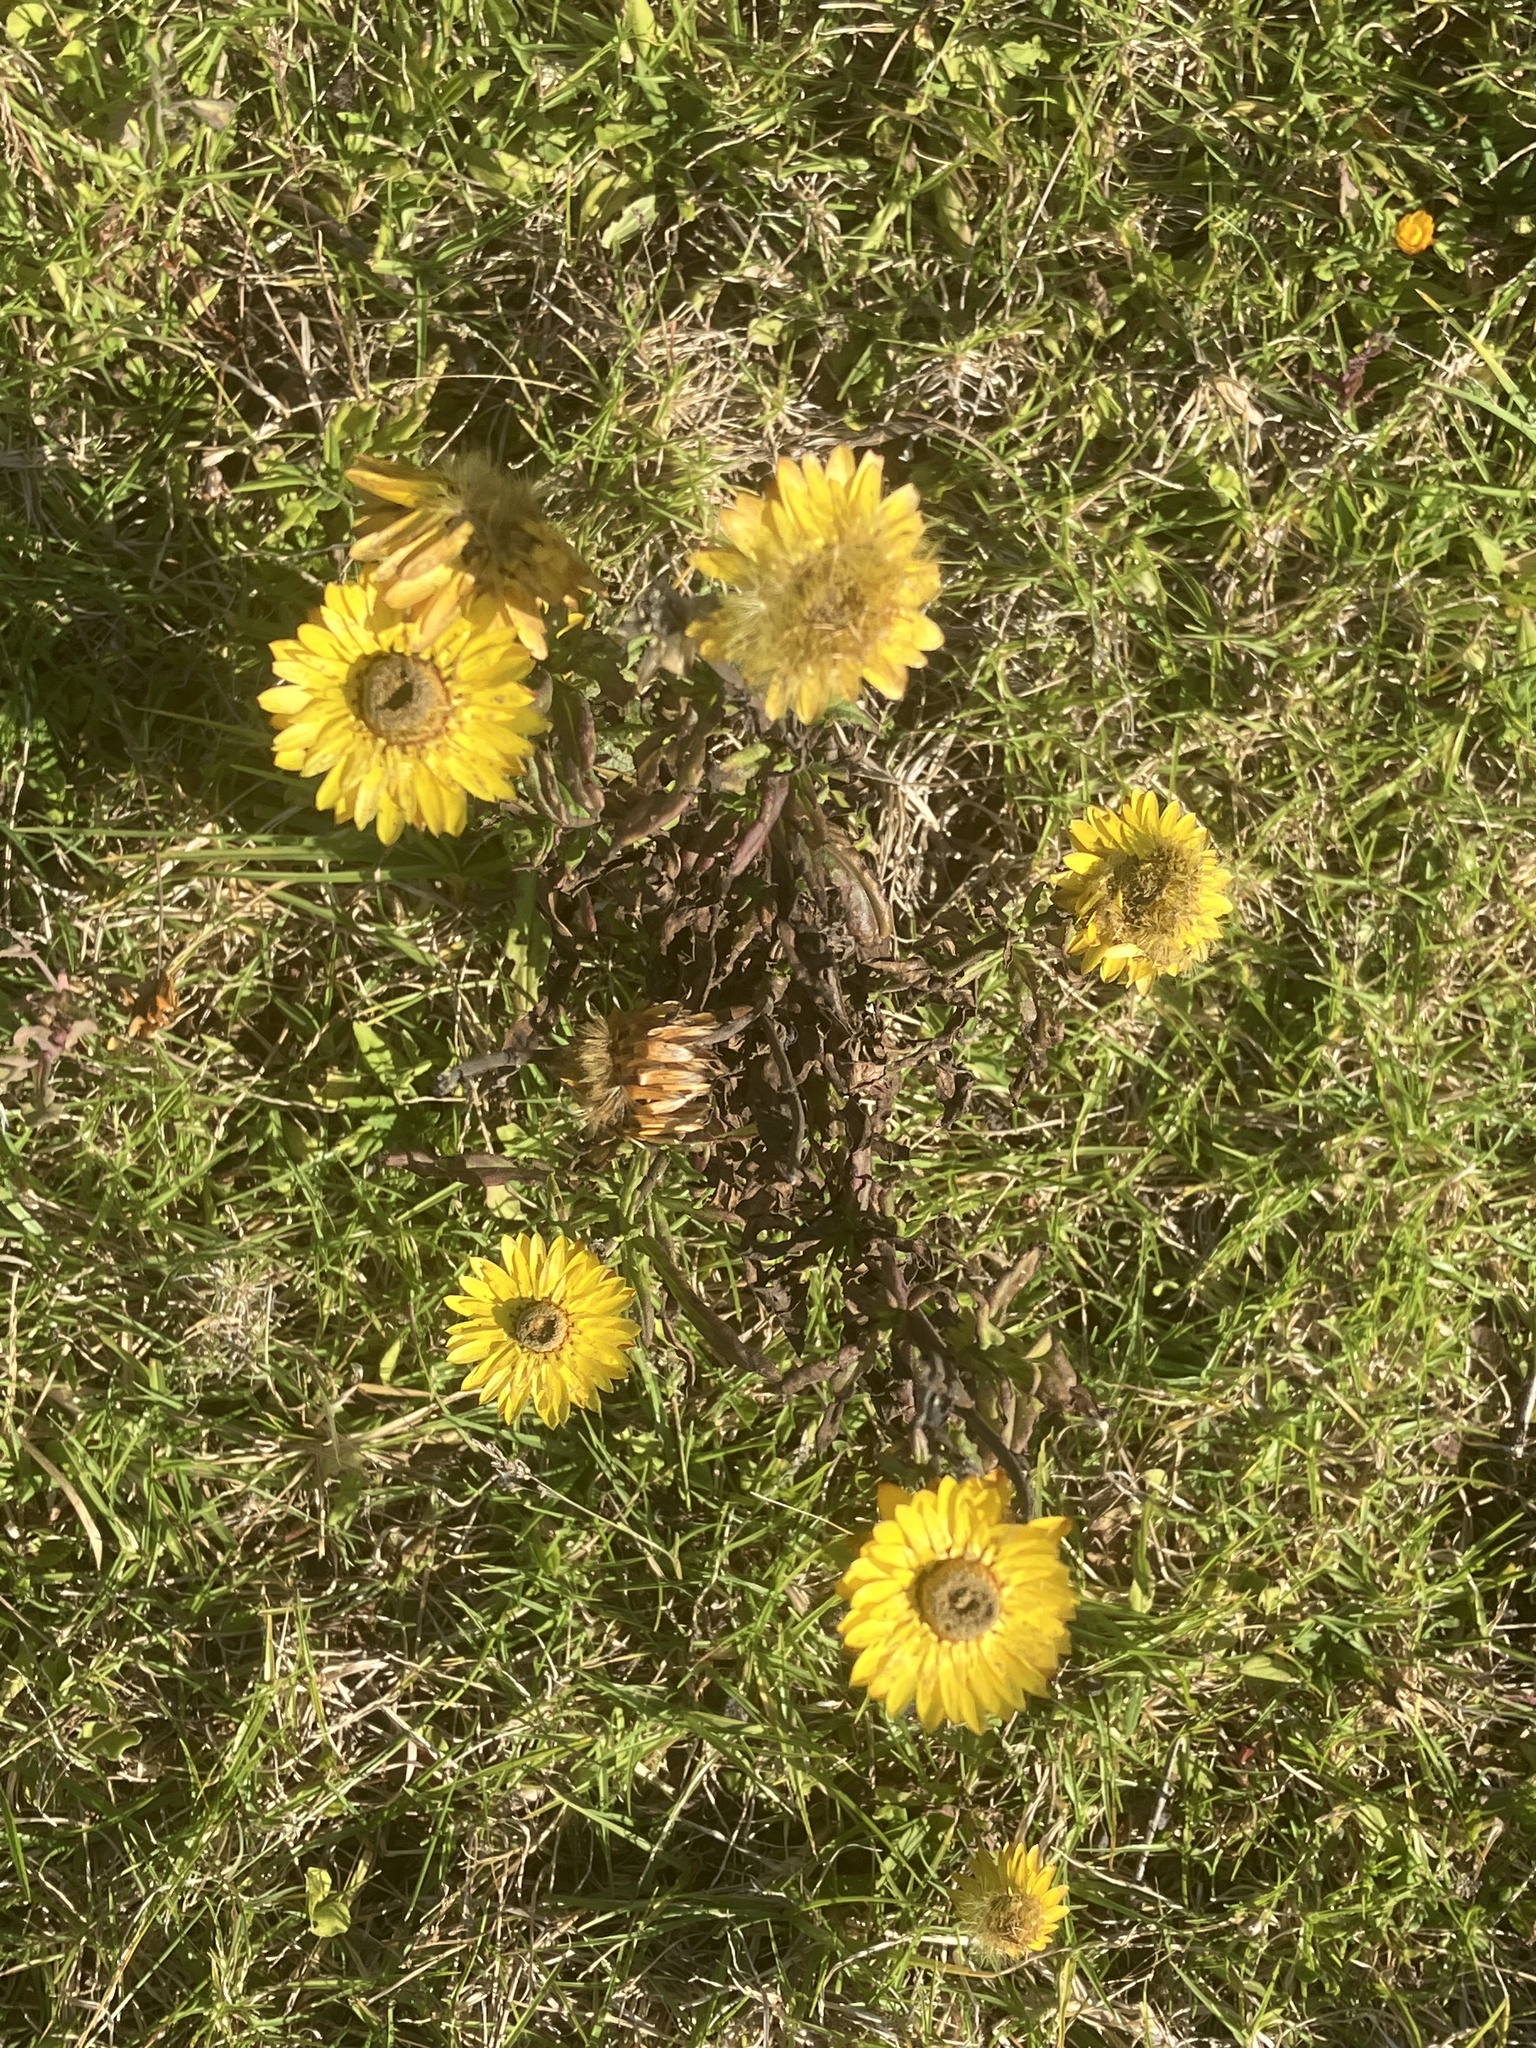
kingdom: Plantae
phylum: Tracheophyta
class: Magnoliopsida
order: Asterales
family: Asteraceae
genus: Xerochrysum
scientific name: Xerochrysum bracteatum
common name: Bracted strawflower
